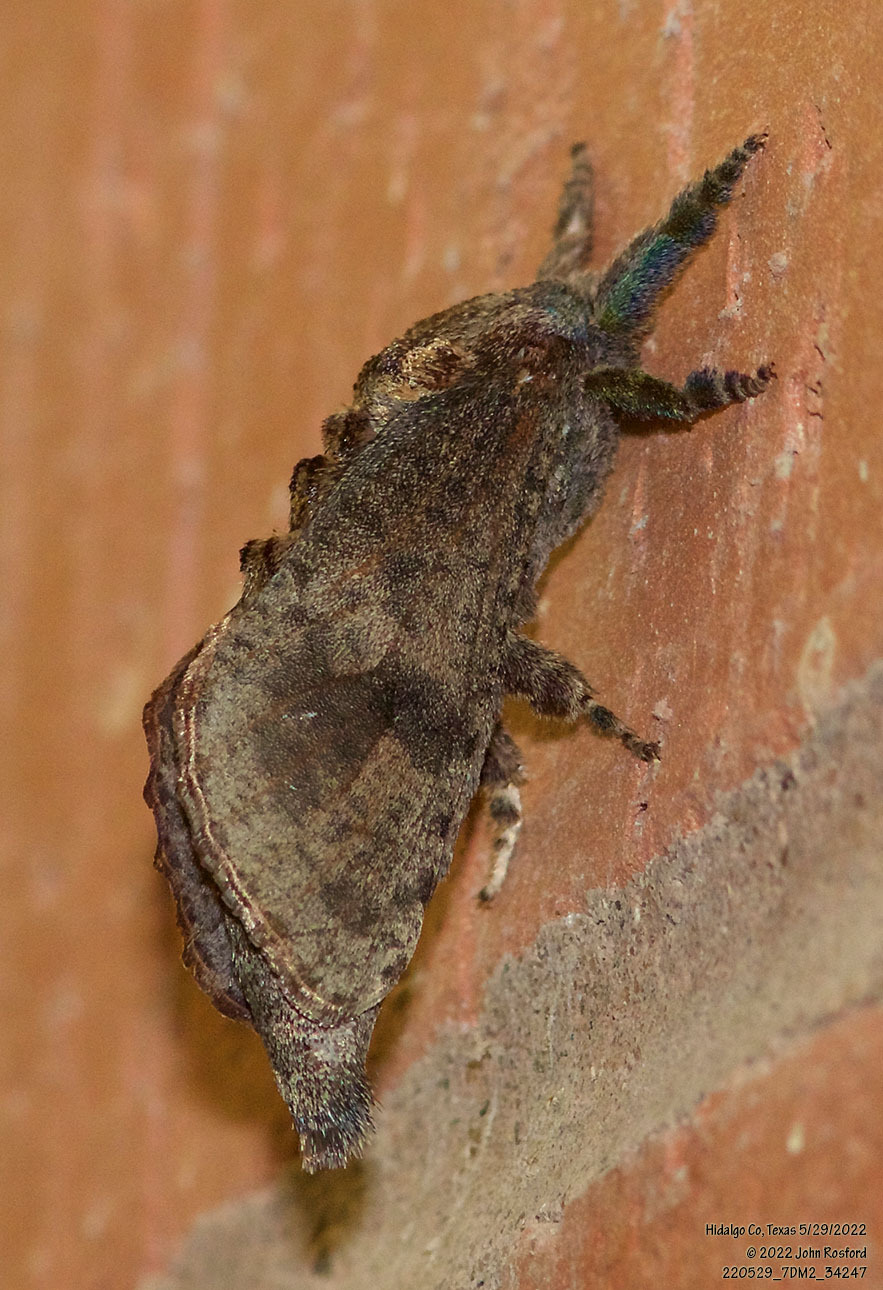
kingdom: Animalia
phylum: Arthropoda
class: Insecta
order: Lepidoptera
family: Cossidae
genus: Givira
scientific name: Givira arbeloides
